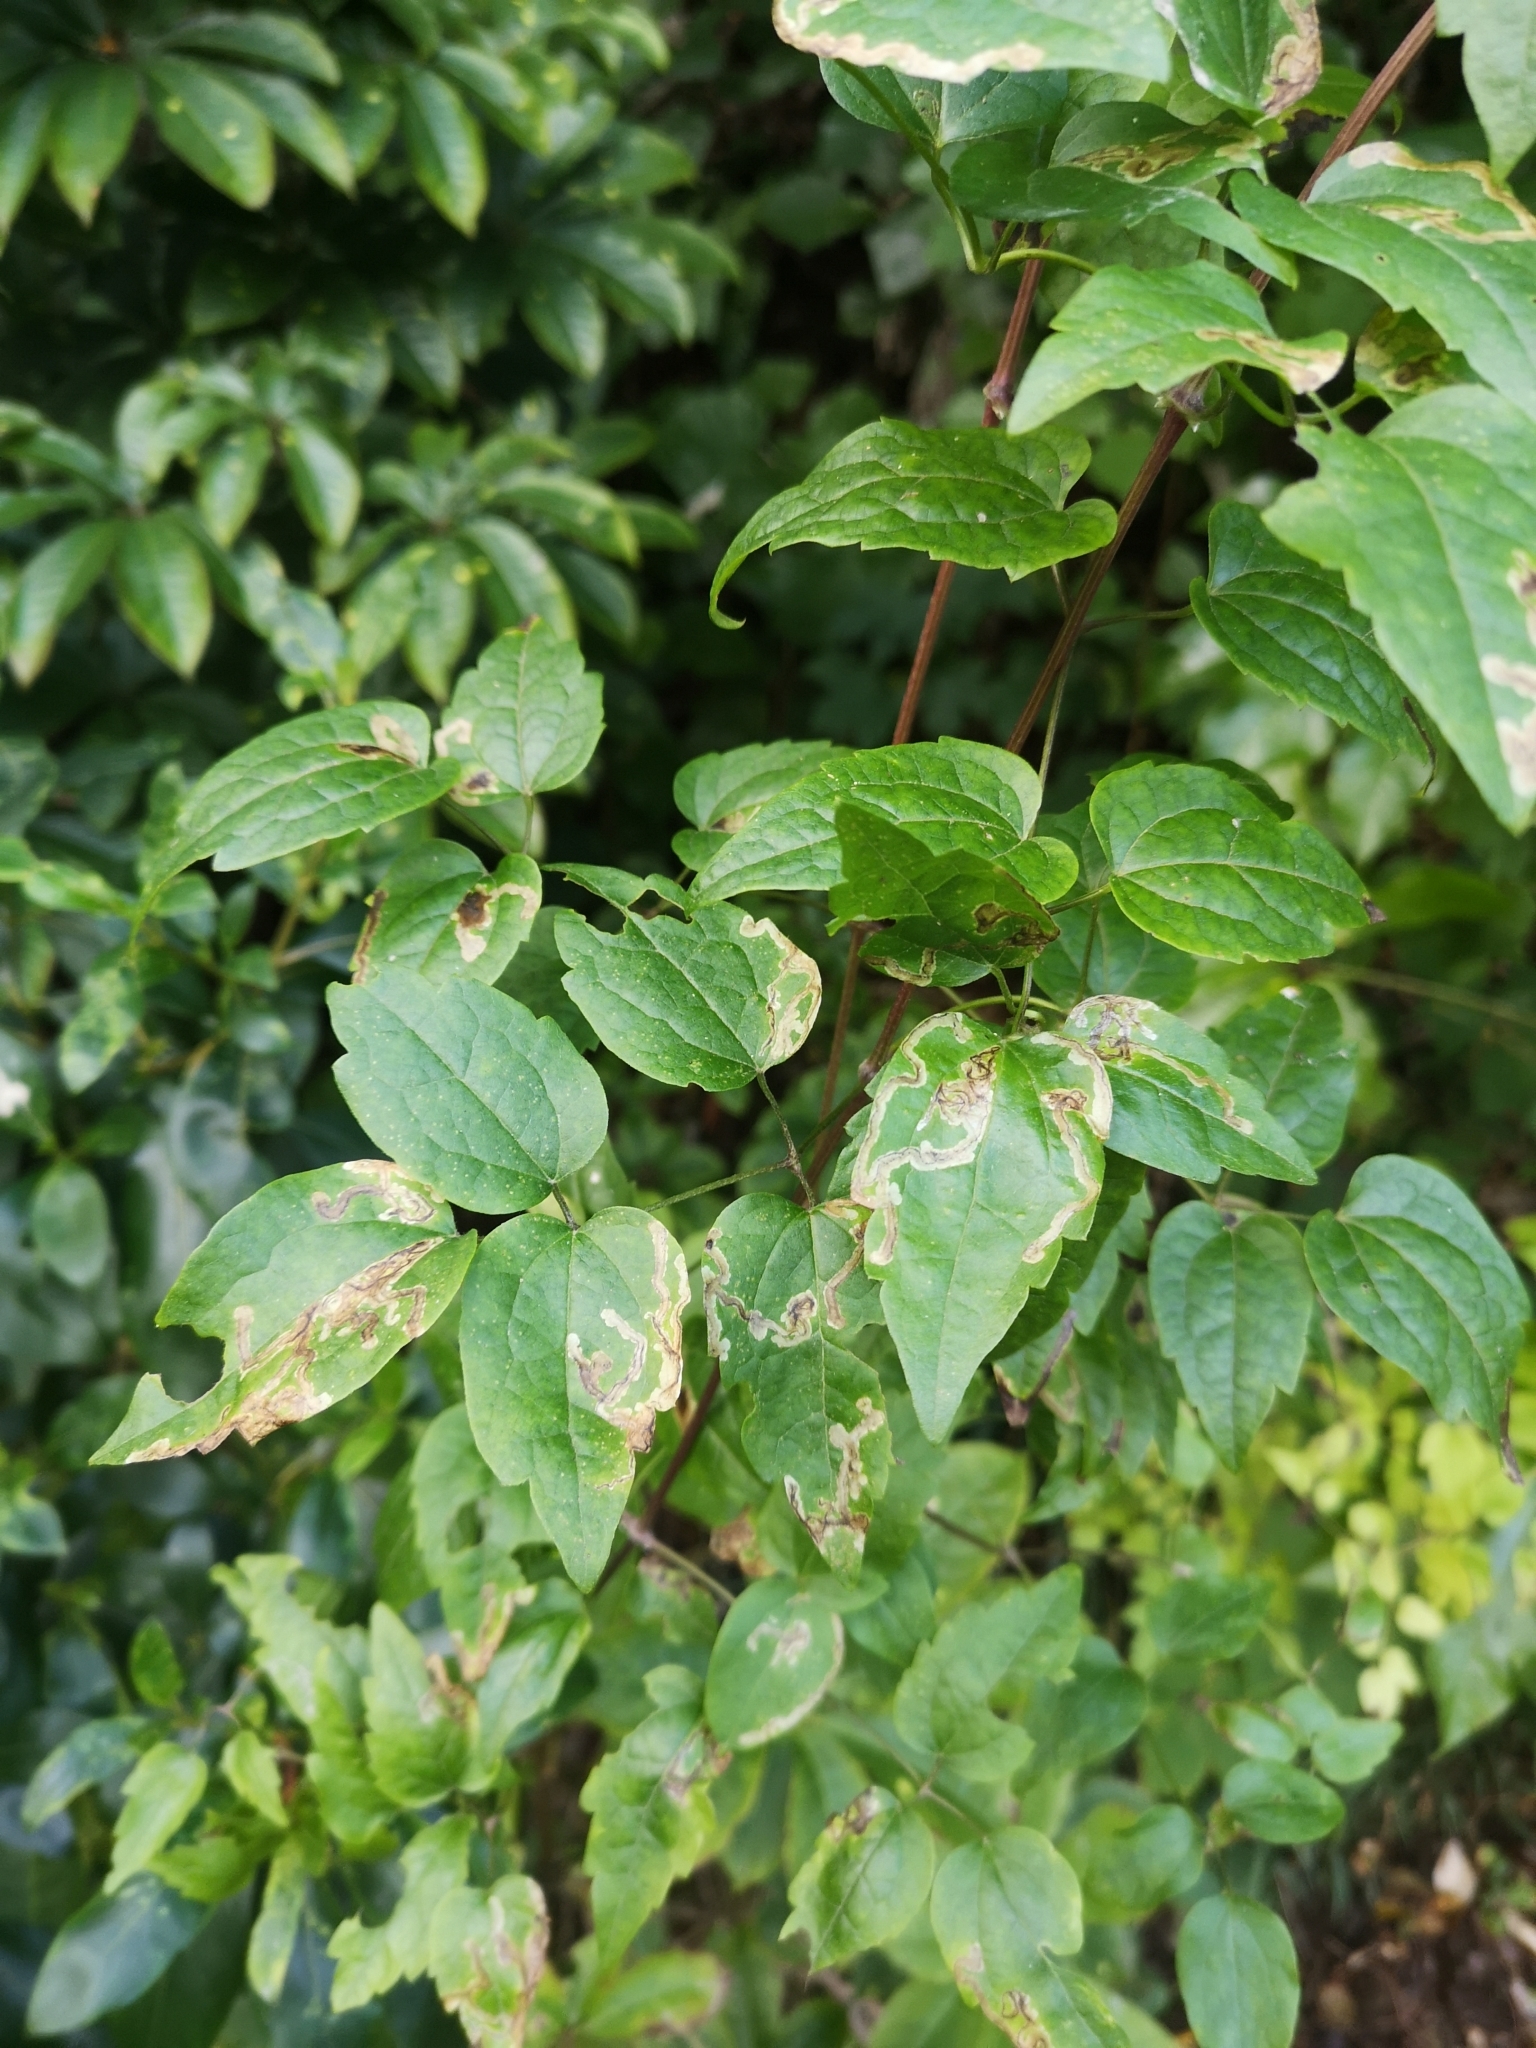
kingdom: Plantae
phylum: Tracheophyta
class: Magnoliopsida
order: Ranunculales
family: Ranunculaceae
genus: Clematis
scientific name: Clematis vitalba
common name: Evergreen clematis
